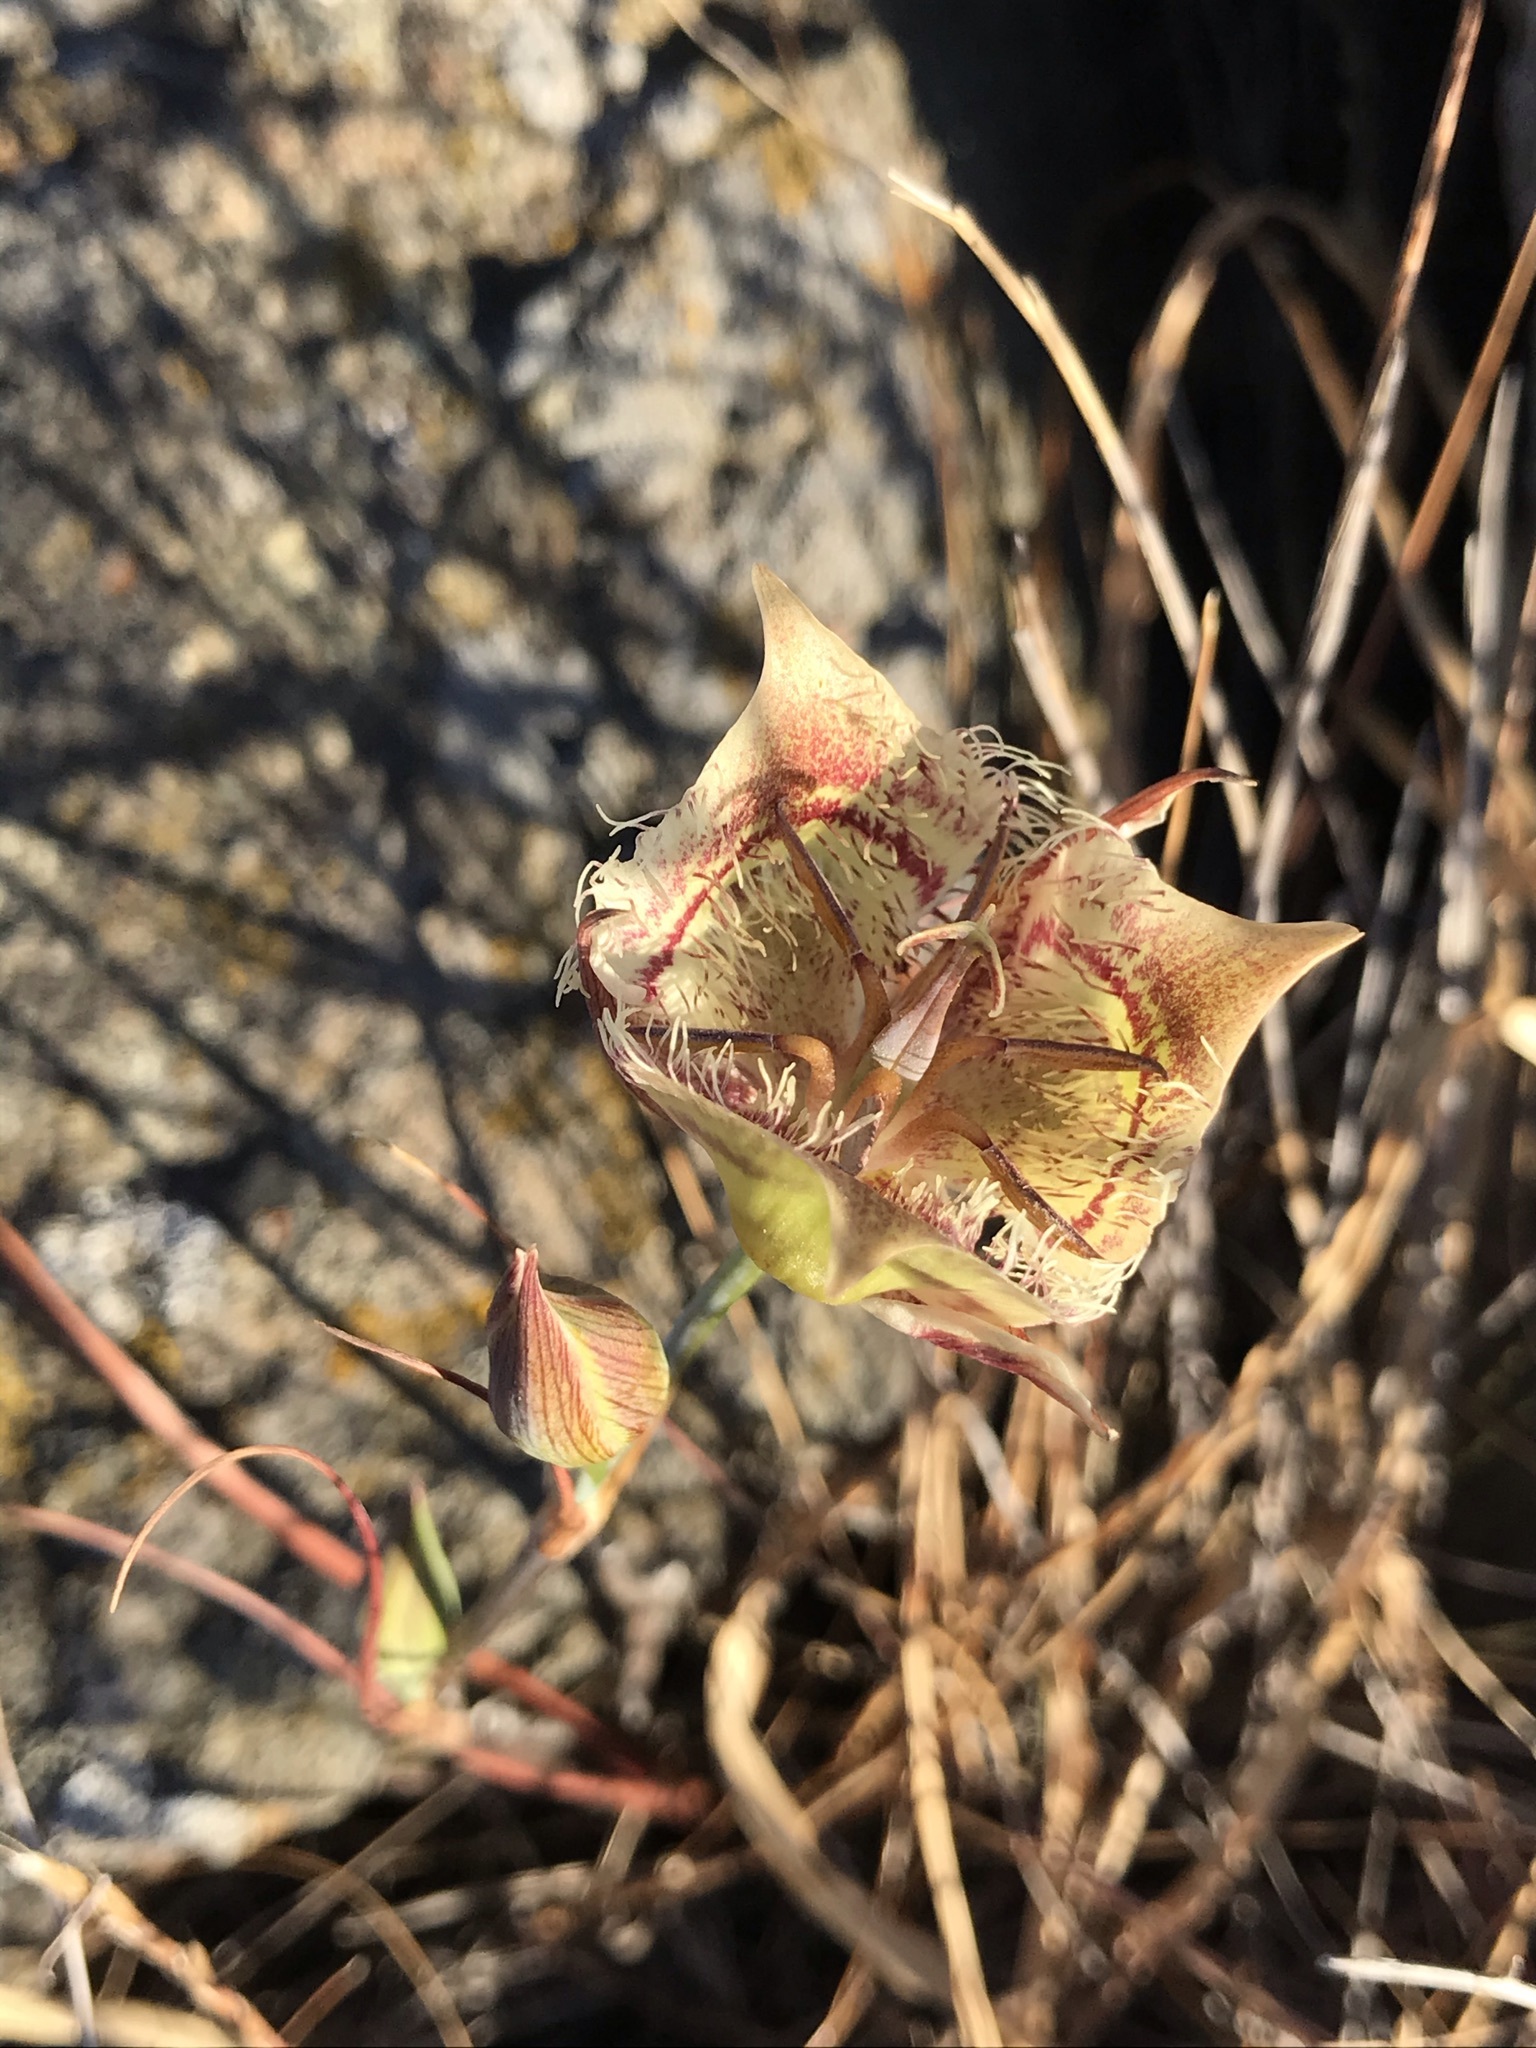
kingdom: Plantae
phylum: Tracheophyta
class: Liliopsida
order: Liliales
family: Liliaceae
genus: Calochortus
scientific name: Calochortus tiburonensis
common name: Tiburon mariposa-lily
